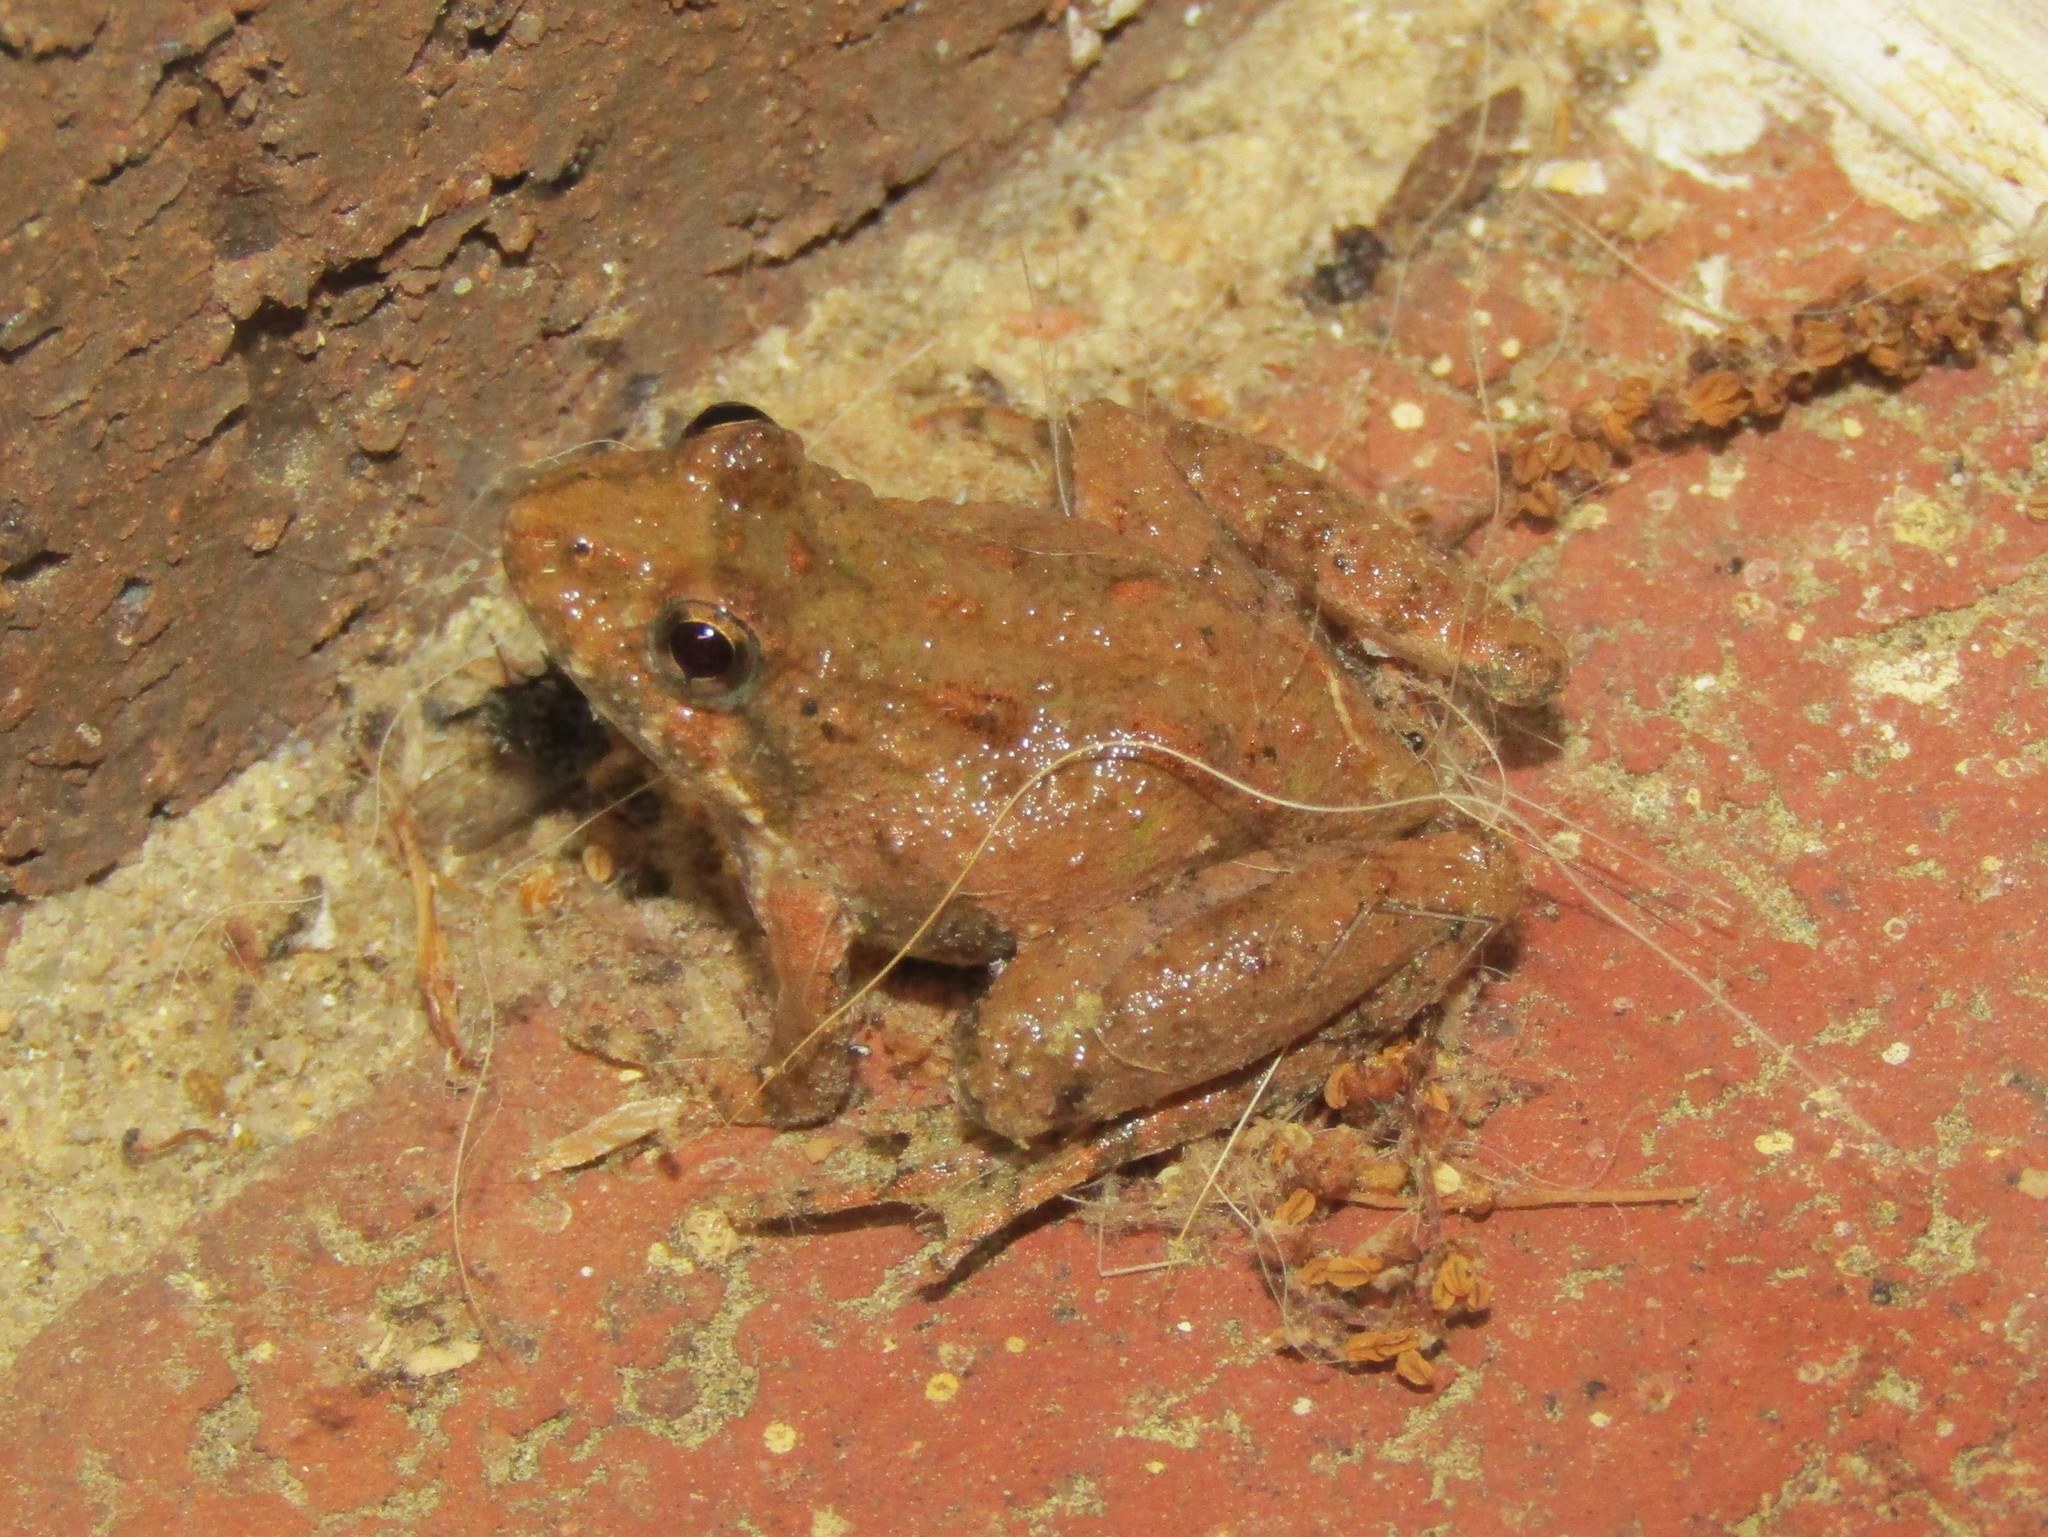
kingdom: Animalia
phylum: Chordata
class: Amphibia
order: Anura
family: Hylidae
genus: Acris
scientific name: Acris crepitans
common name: Northern cricket frog
